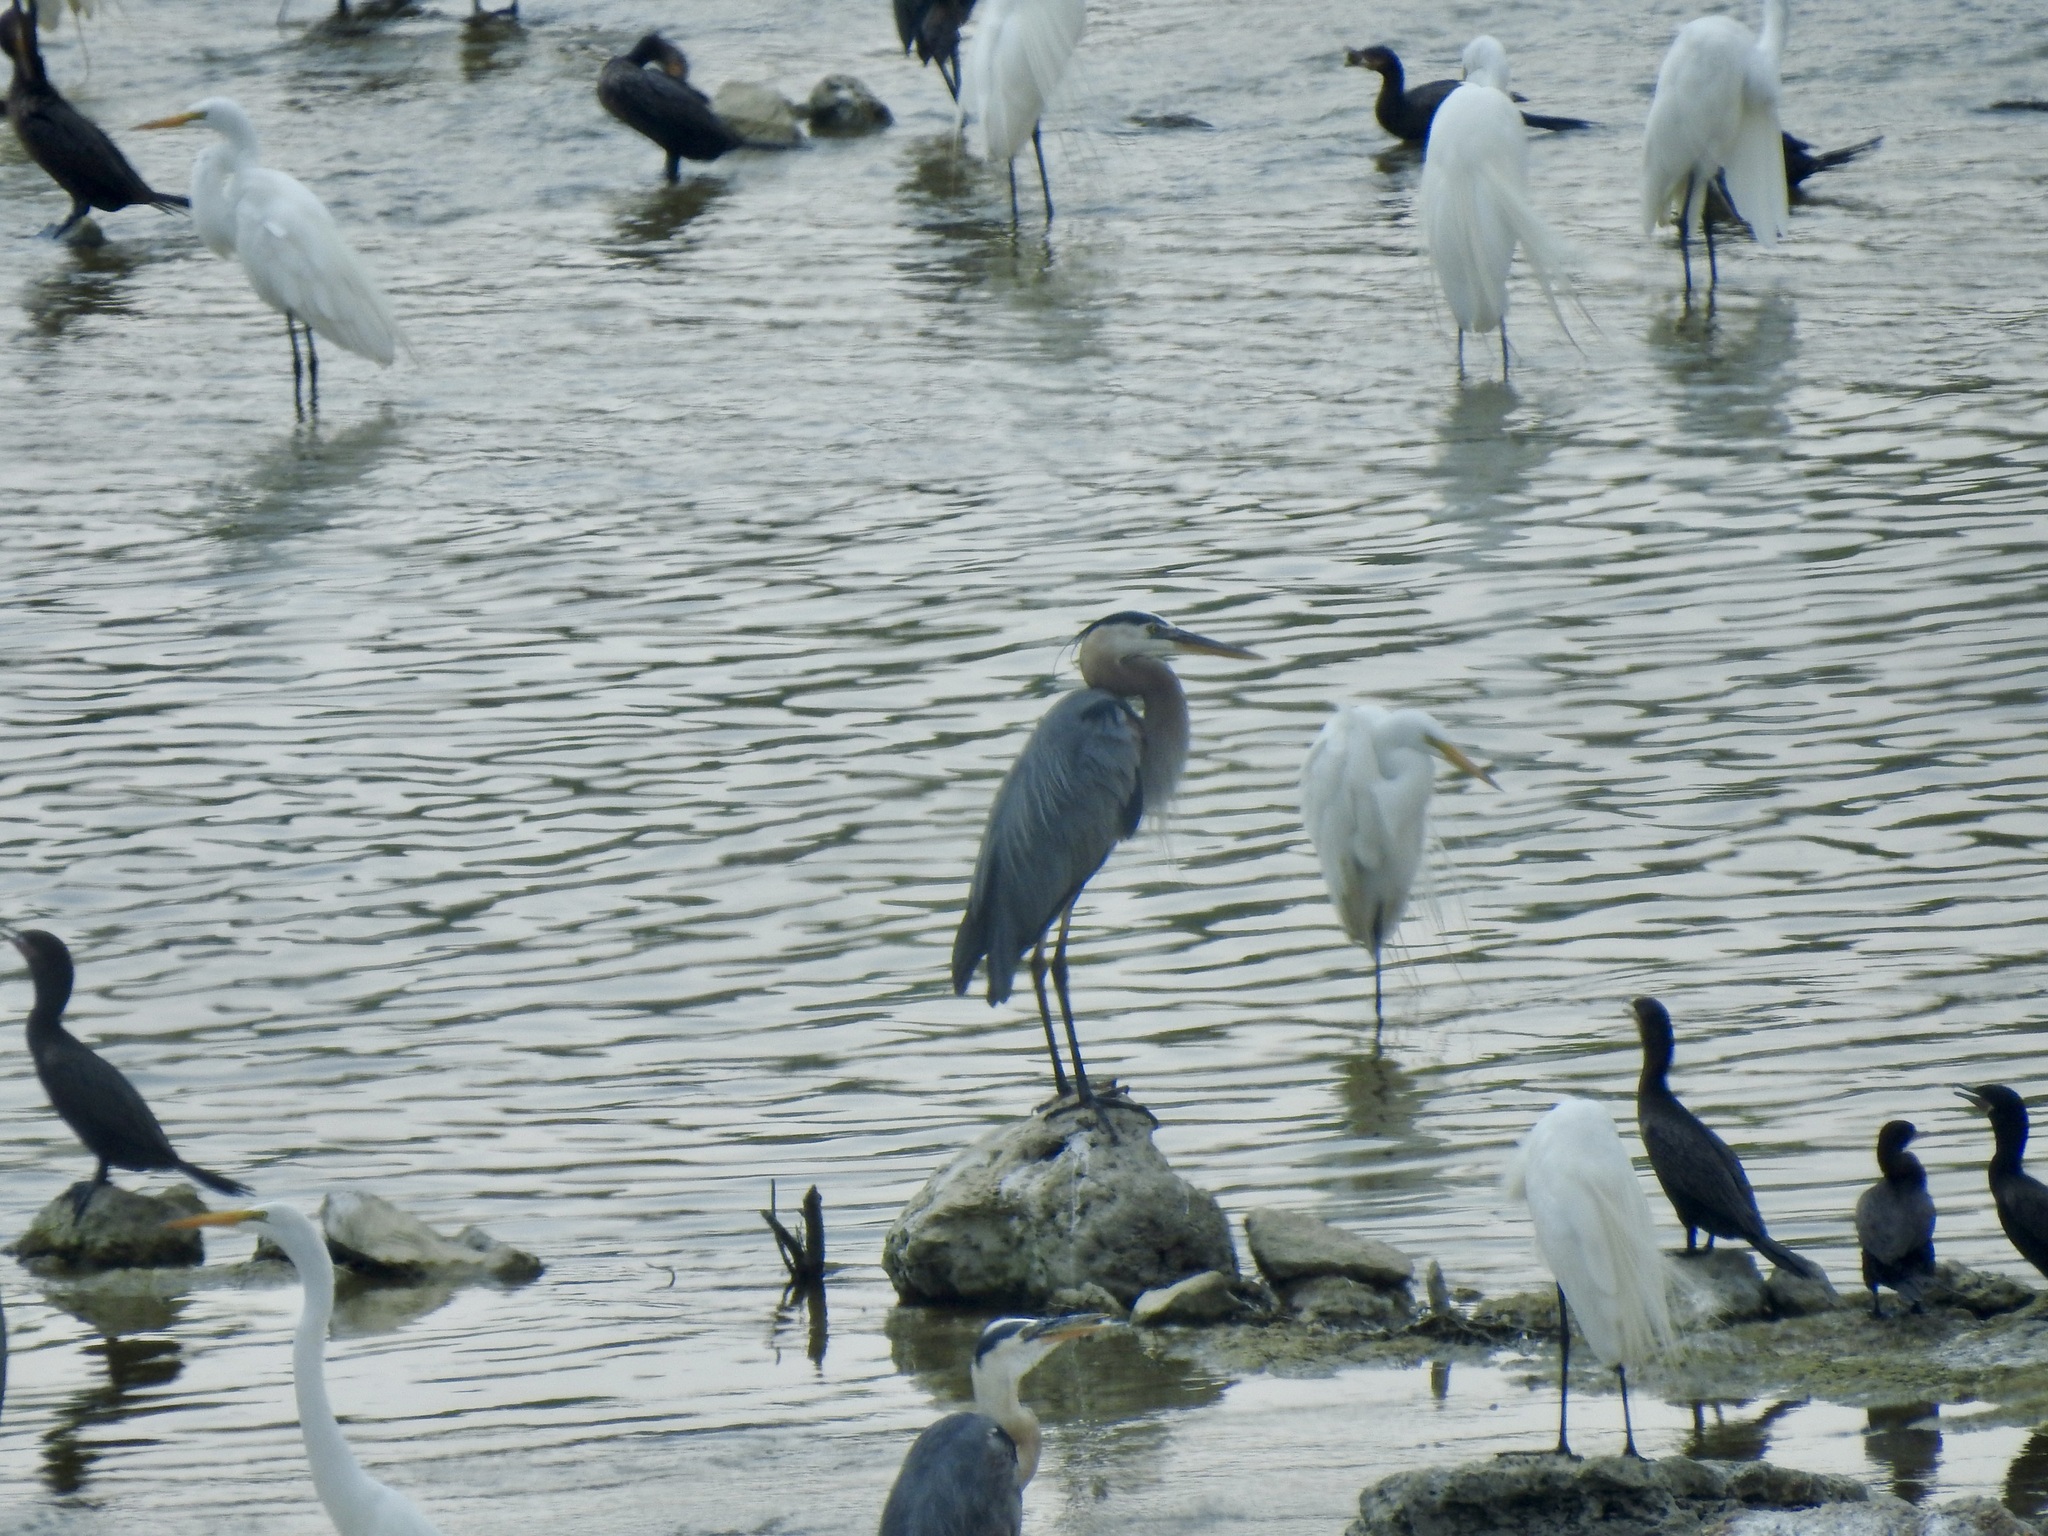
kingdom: Animalia
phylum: Chordata
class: Aves
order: Pelecaniformes
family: Ardeidae
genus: Ardea
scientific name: Ardea herodias
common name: Great blue heron
